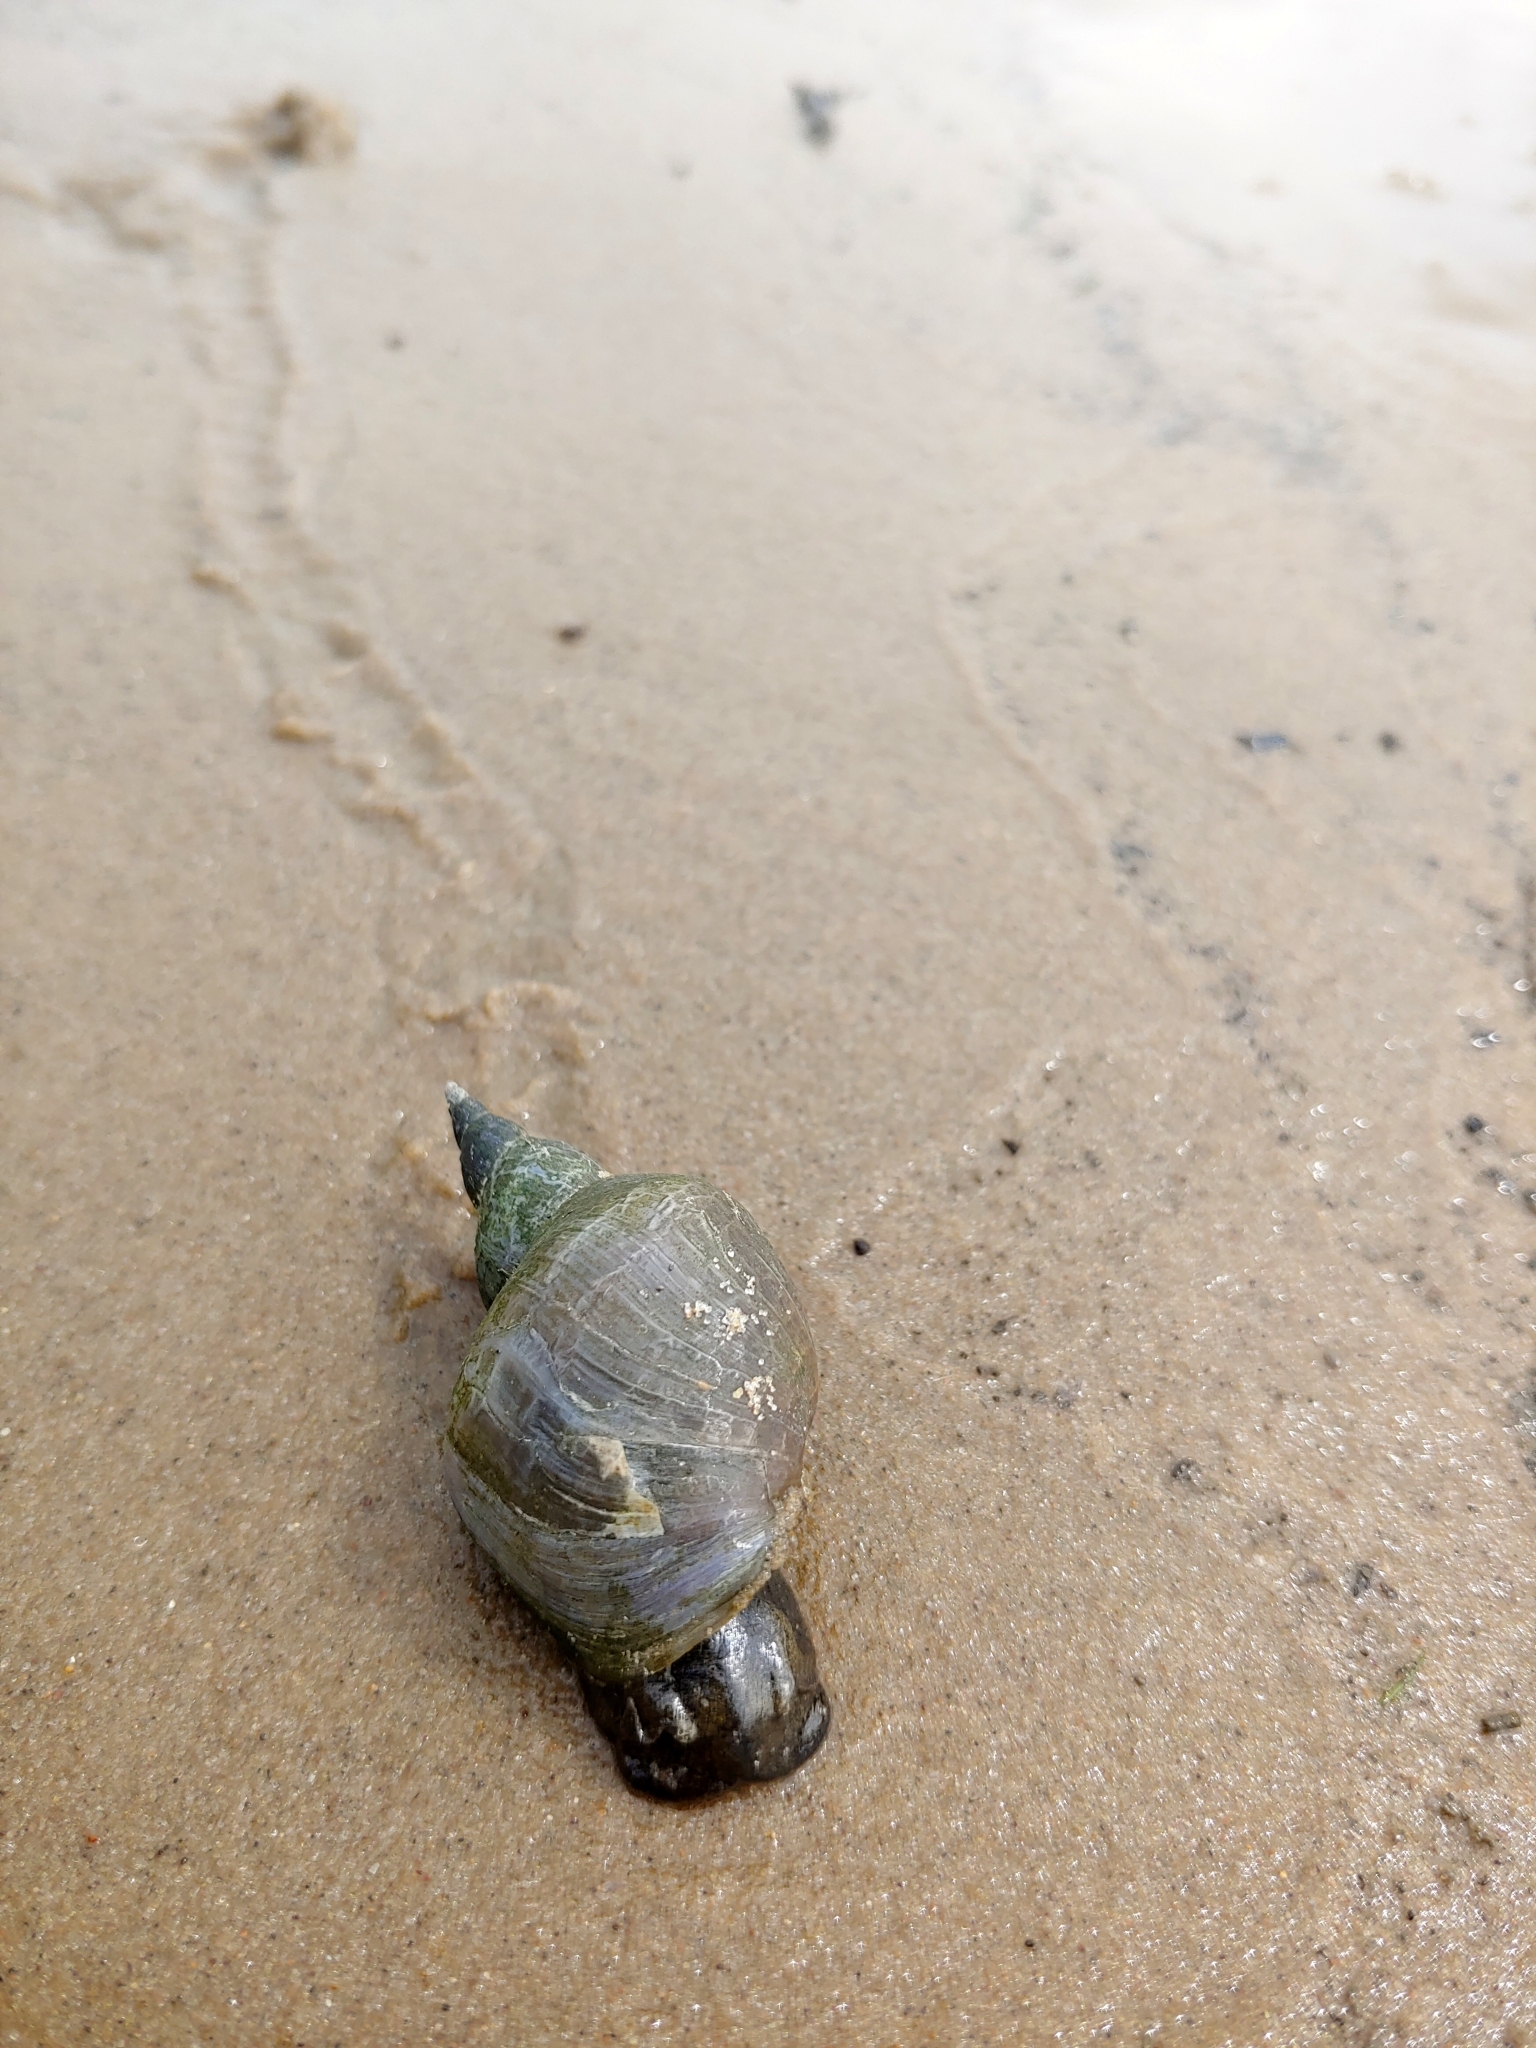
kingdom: Animalia
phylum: Mollusca
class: Gastropoda
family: Lymnaeidae
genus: Lymnaea
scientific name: Lymnaea stagnalis
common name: Great pond snail
